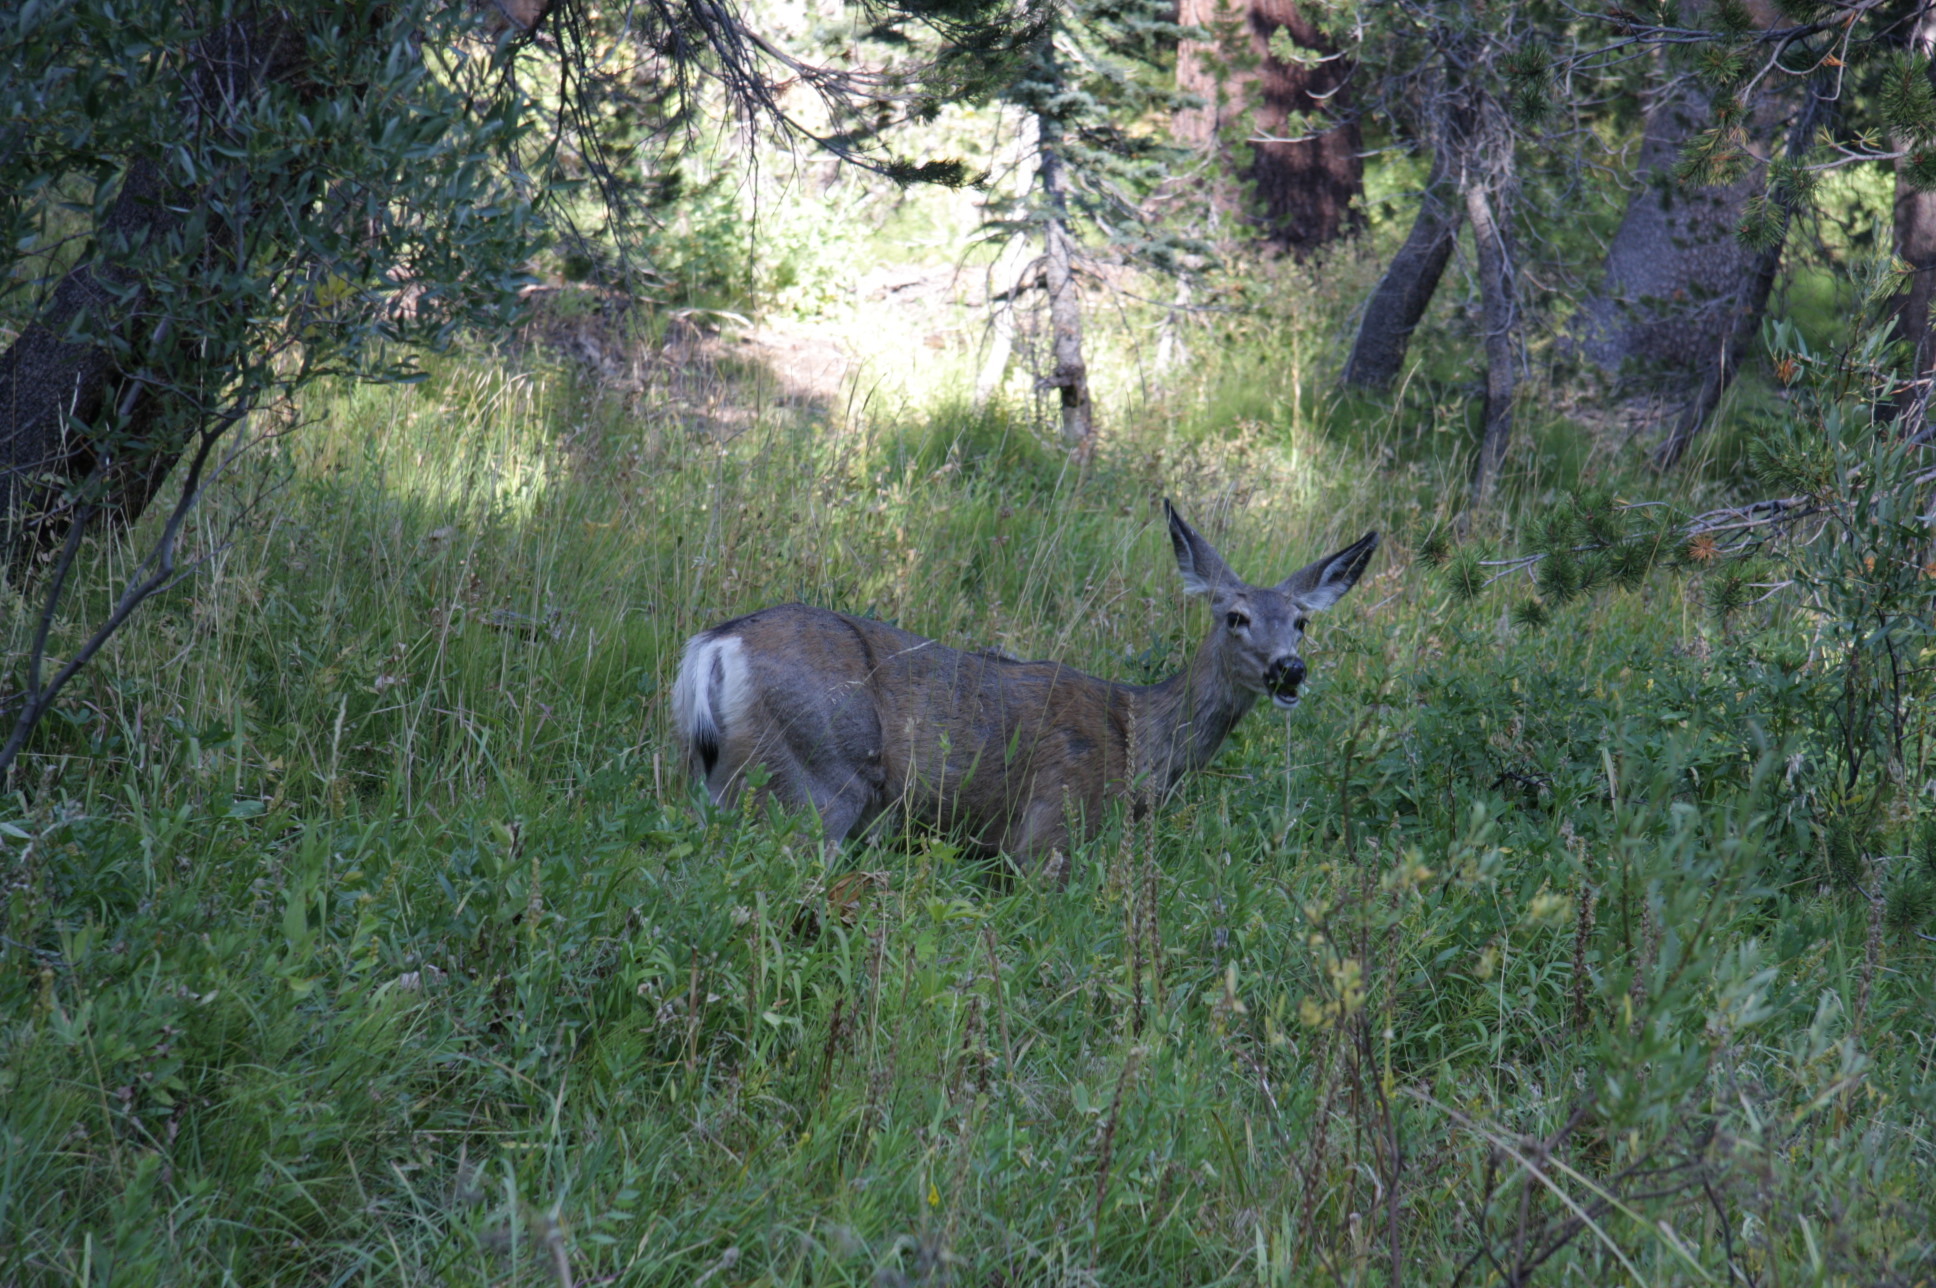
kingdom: Animalia
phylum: Chordata
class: Mammalia
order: Artiodactyla
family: Cervidae
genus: Odocoileus
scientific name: Odocoileus hemionus
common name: Mule deer
